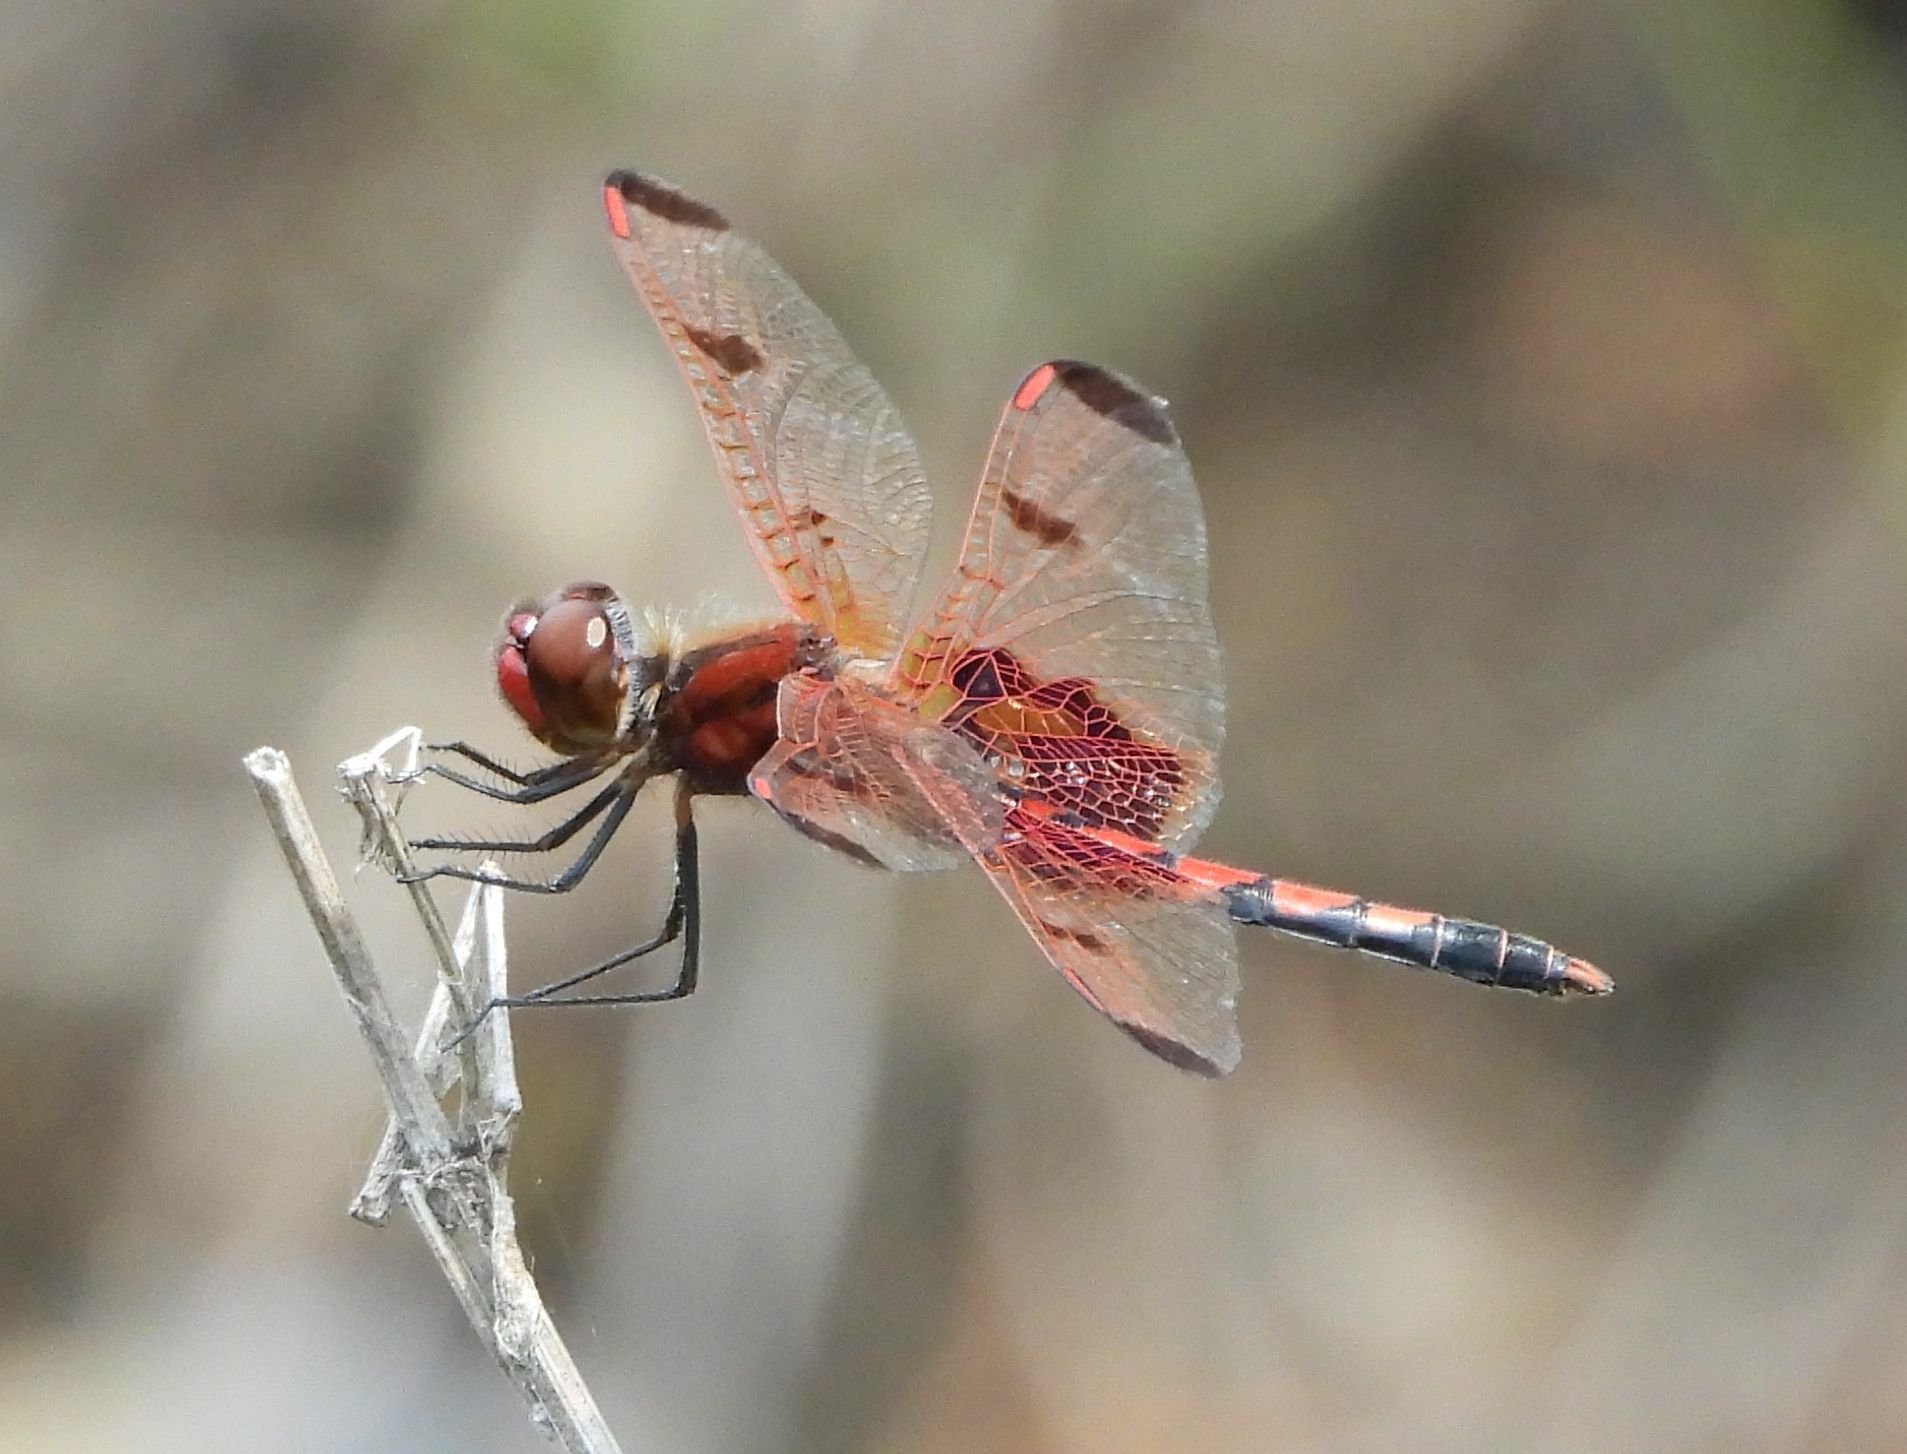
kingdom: Animalia
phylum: Arthropoda
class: Insecta
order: Odonata
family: Libellulidae
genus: Celithemis
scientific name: Celithemis elisa
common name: Calico pennant
